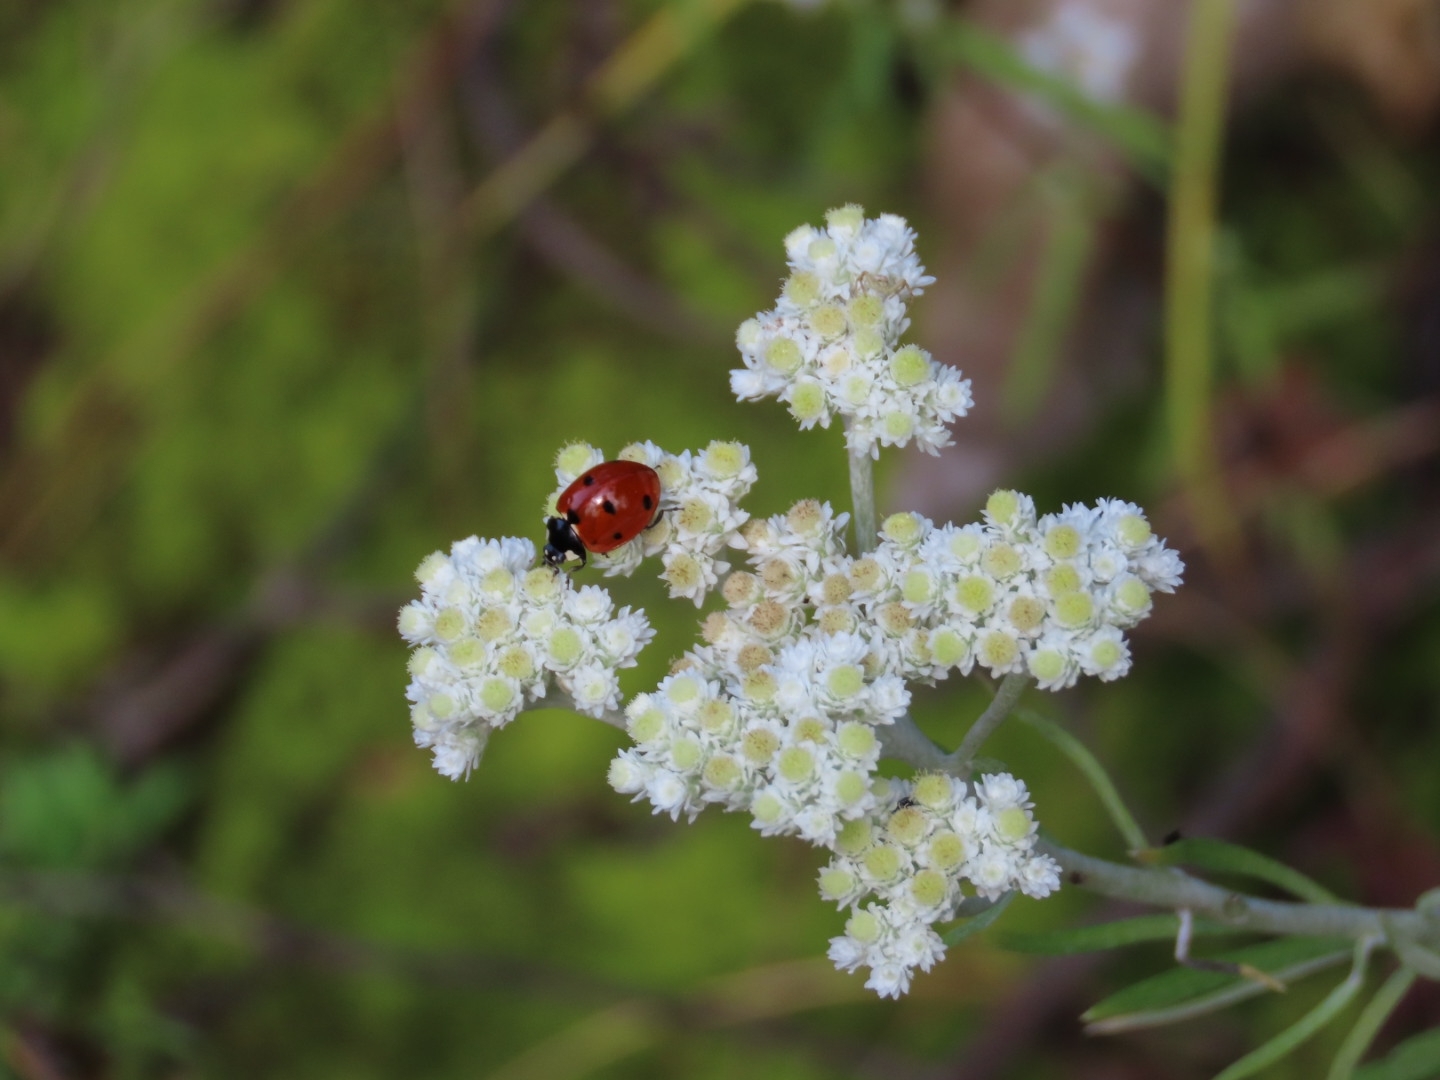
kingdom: Animalia
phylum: Arthropoda
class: Insecta
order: Coleoptera
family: Coccinellidae
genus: Coccinella
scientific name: Coccinella septempunctata
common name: Sevenspotted lady beetle
